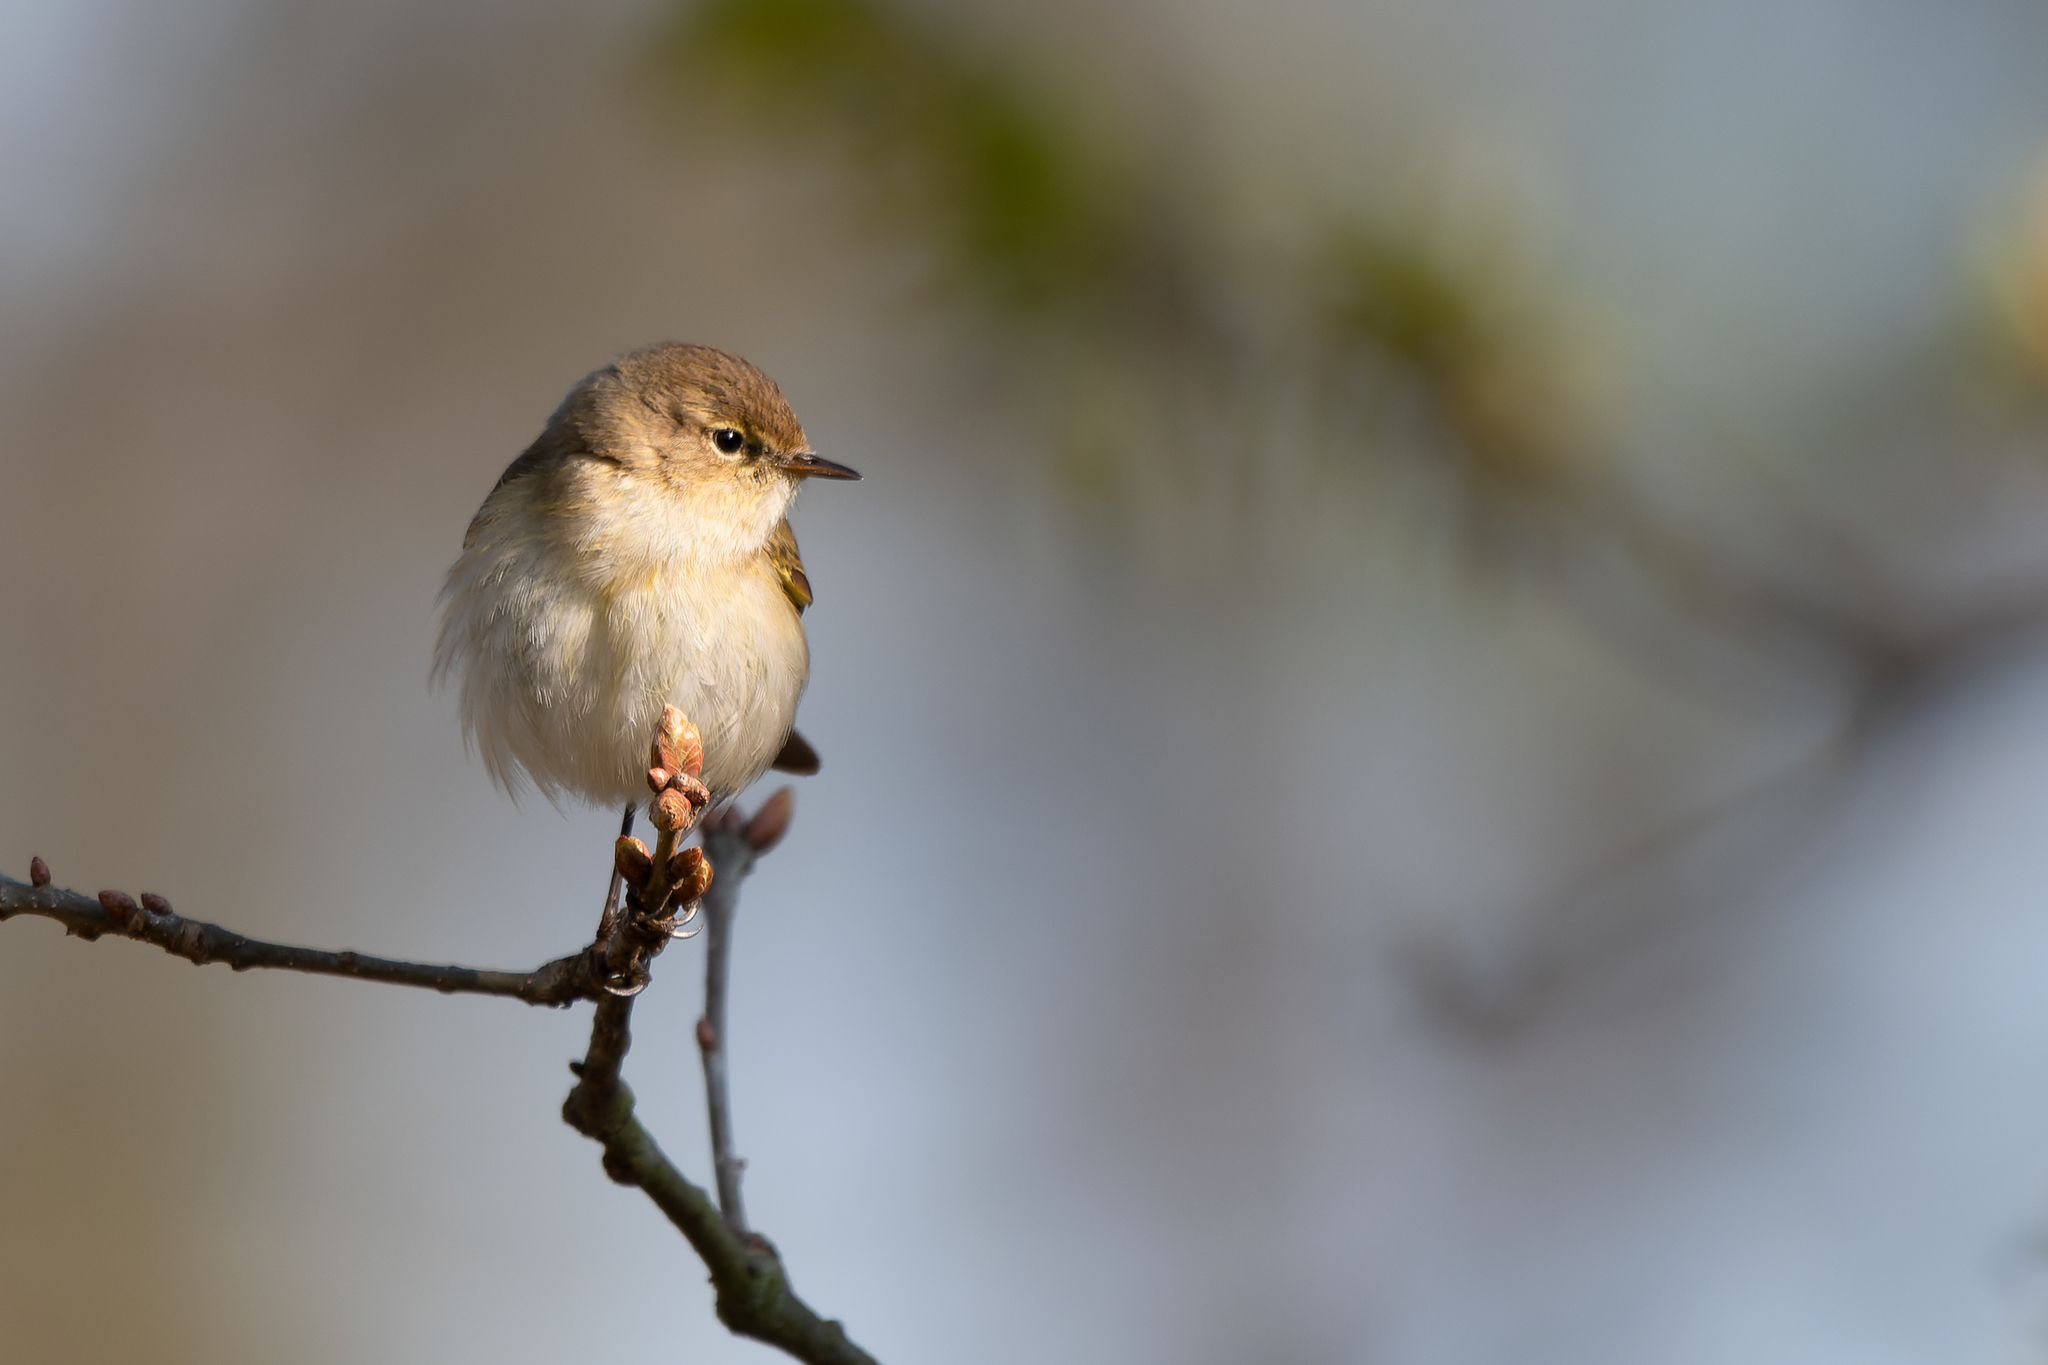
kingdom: Animalia
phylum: Chordata
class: Aves
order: Passeriformes
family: Phylloscopidae
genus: Phylloscopus
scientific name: Phylloscopus collybita
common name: Common chiffchaff
